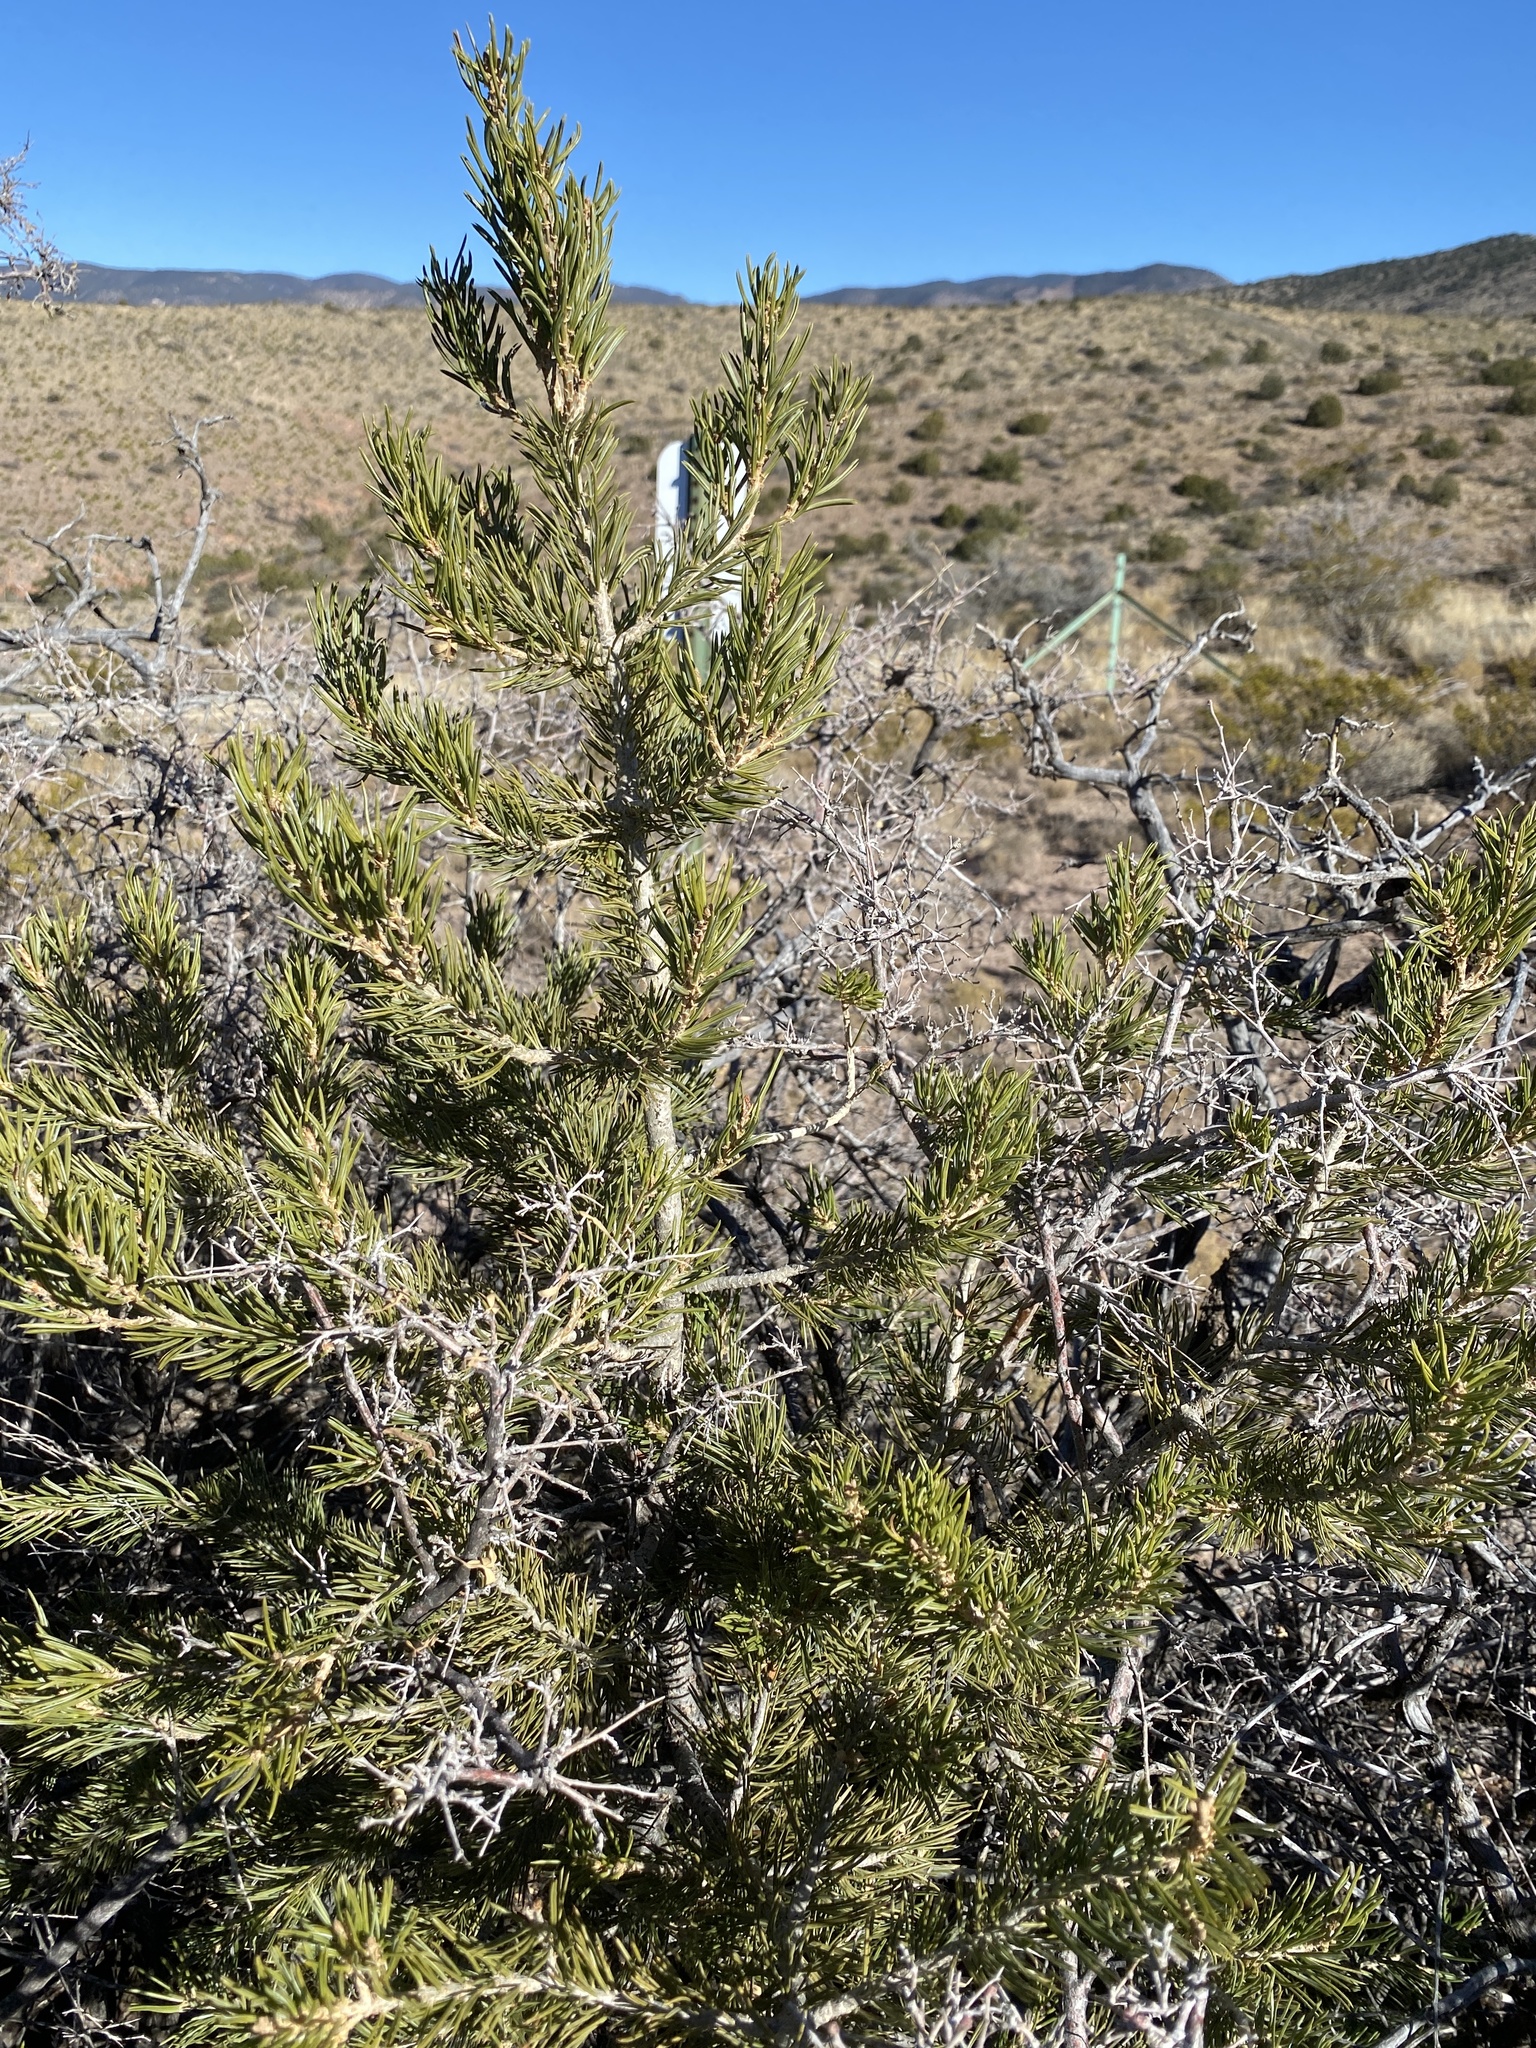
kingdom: Plantae
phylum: Tracheophyta
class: Pinopsida
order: Pinales
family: Pinaceae
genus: Pinus
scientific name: Pinus edulis
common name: Colorado pinyon
